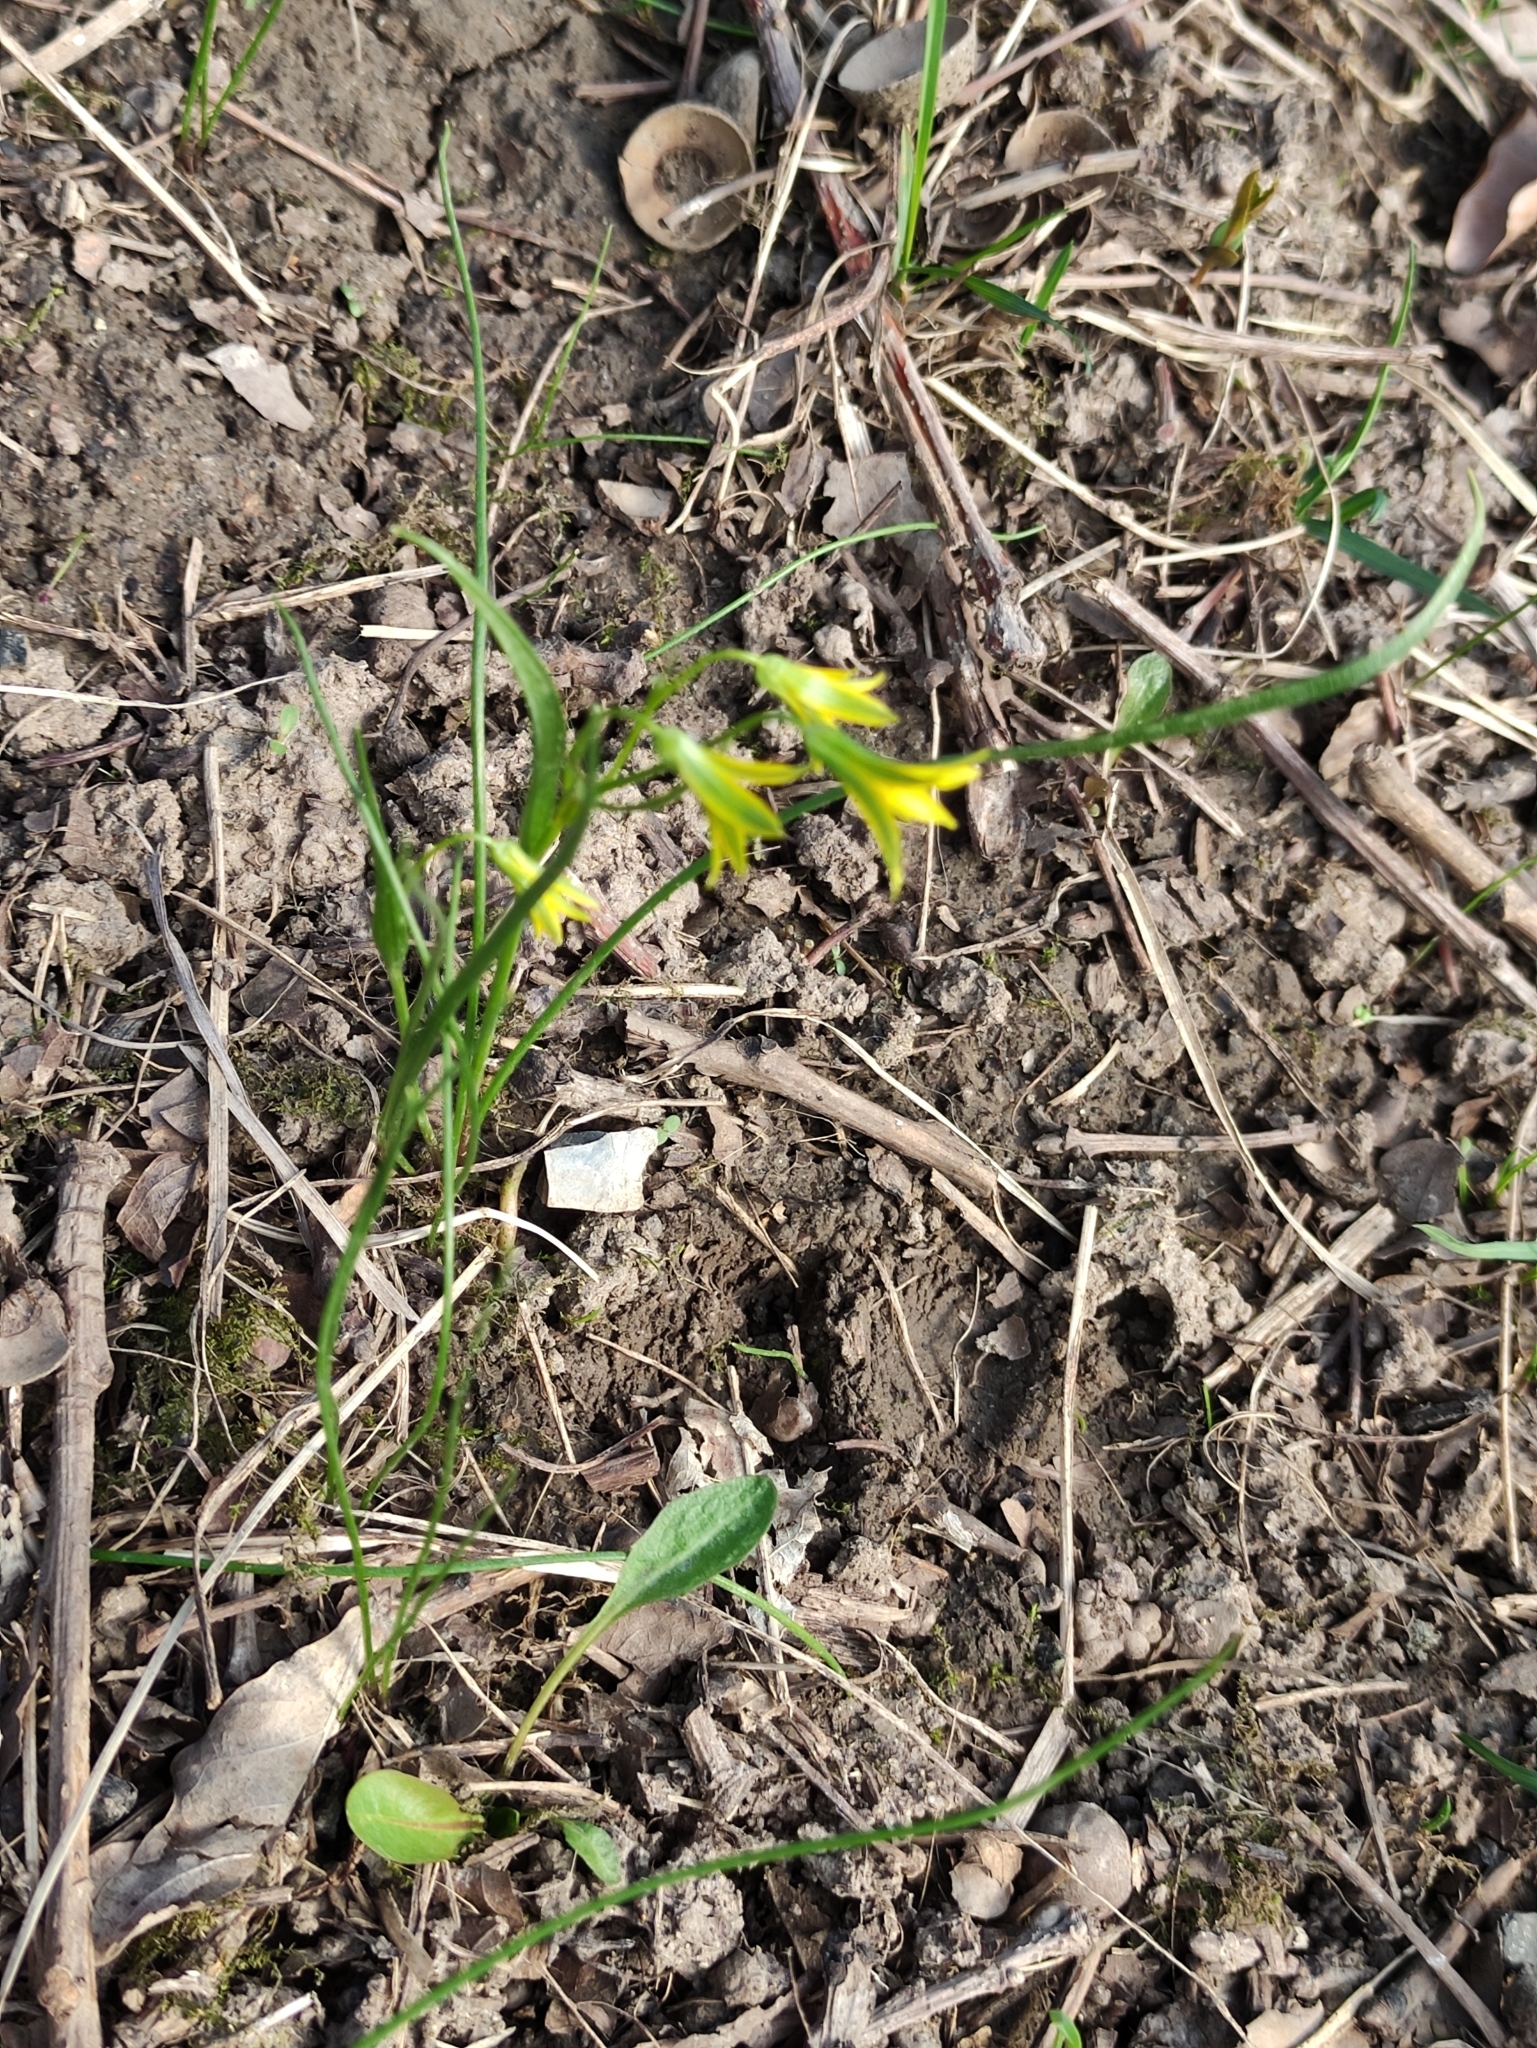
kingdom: Plantae
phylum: Tracheophyta
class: Liliopsida
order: Liliales
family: Liliaceae
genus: Gagea
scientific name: Gagea minima
